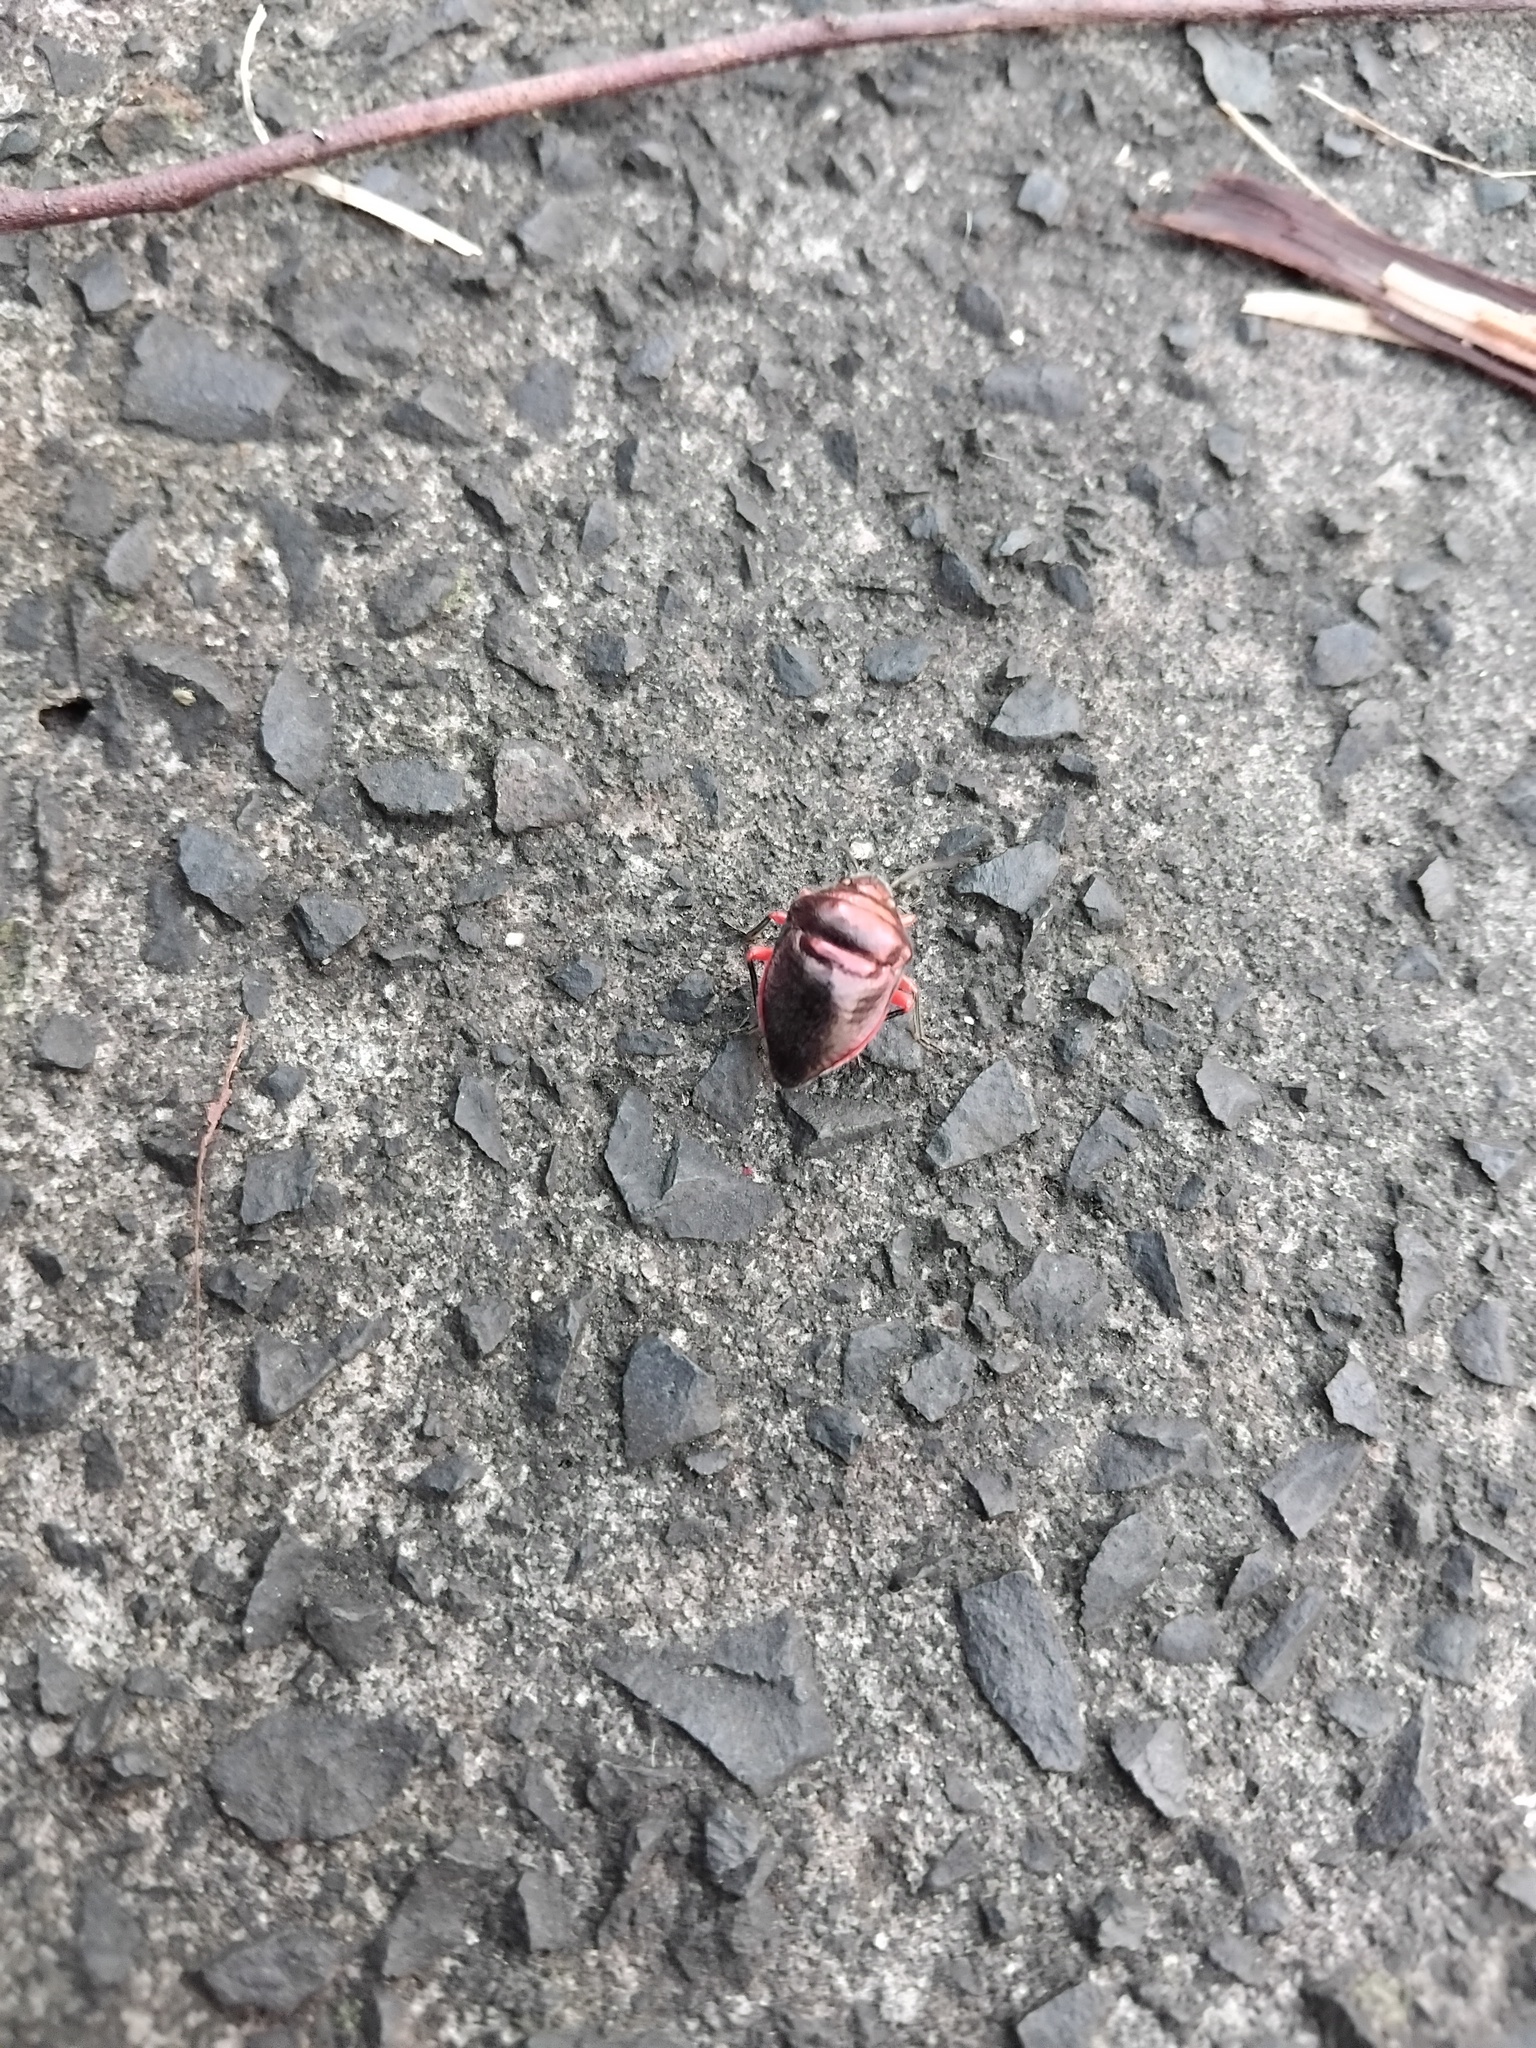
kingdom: Animalia
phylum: Arthropoda
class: Insecta
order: Hemiptera
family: Scutelleridae
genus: Lampromicra
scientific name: Lampromicra
